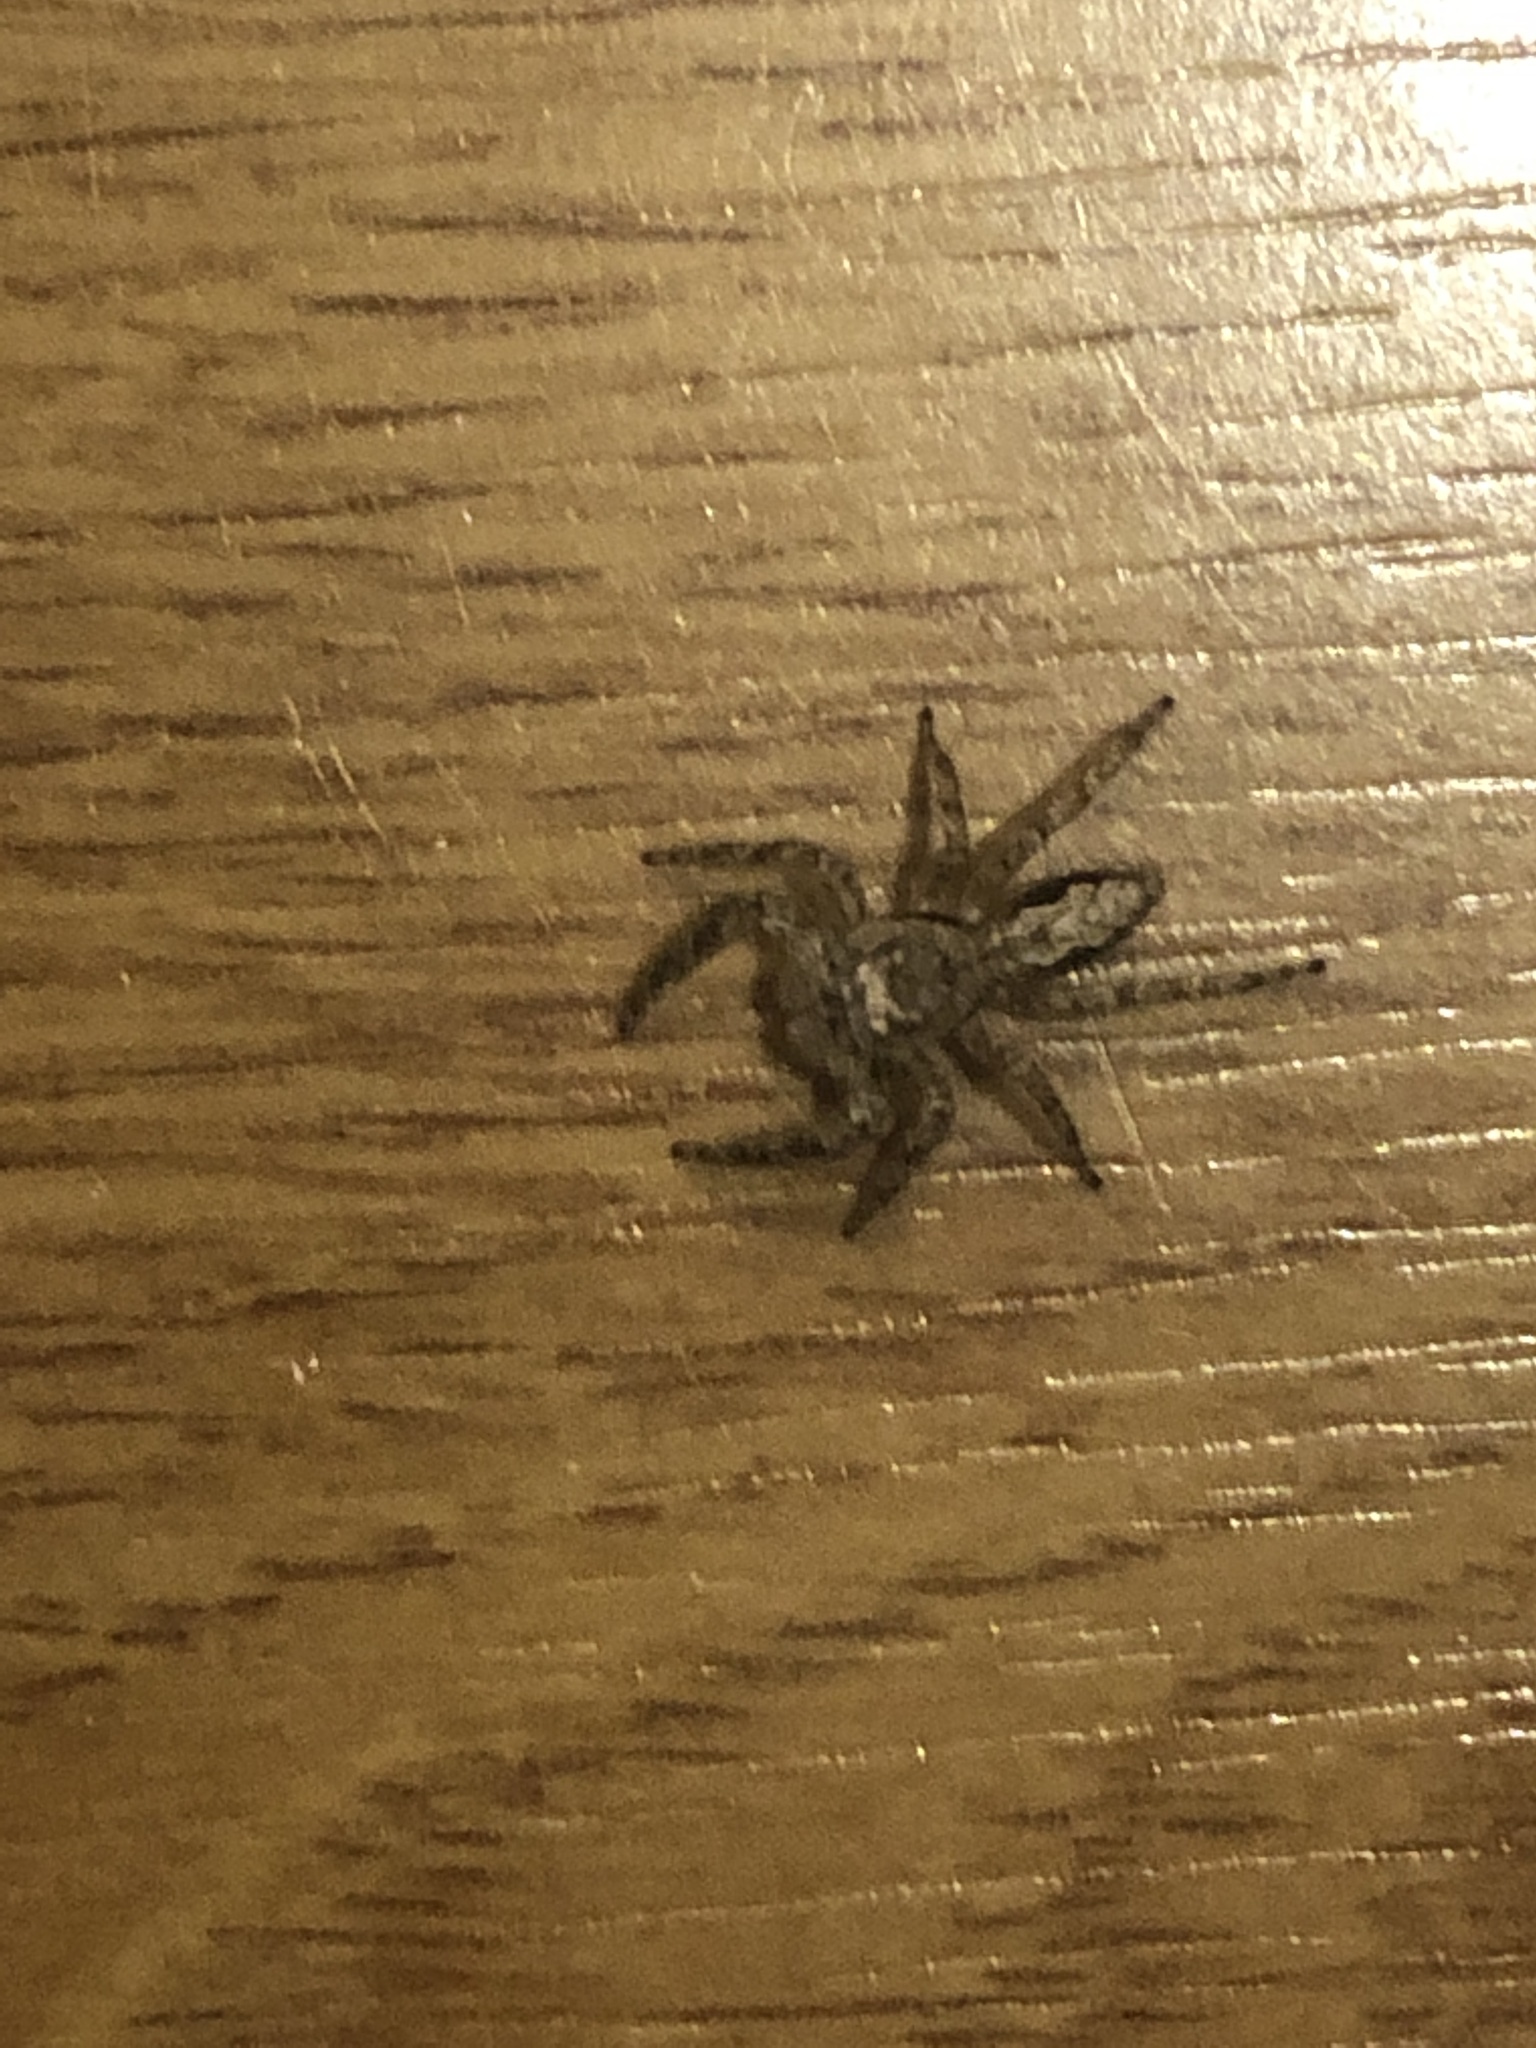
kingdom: Animalia
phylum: Arthropoda
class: Arachnida
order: Araneae
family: Salticidae
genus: Platycryptus
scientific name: Platycryptus undatus
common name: Tan jumping spider
